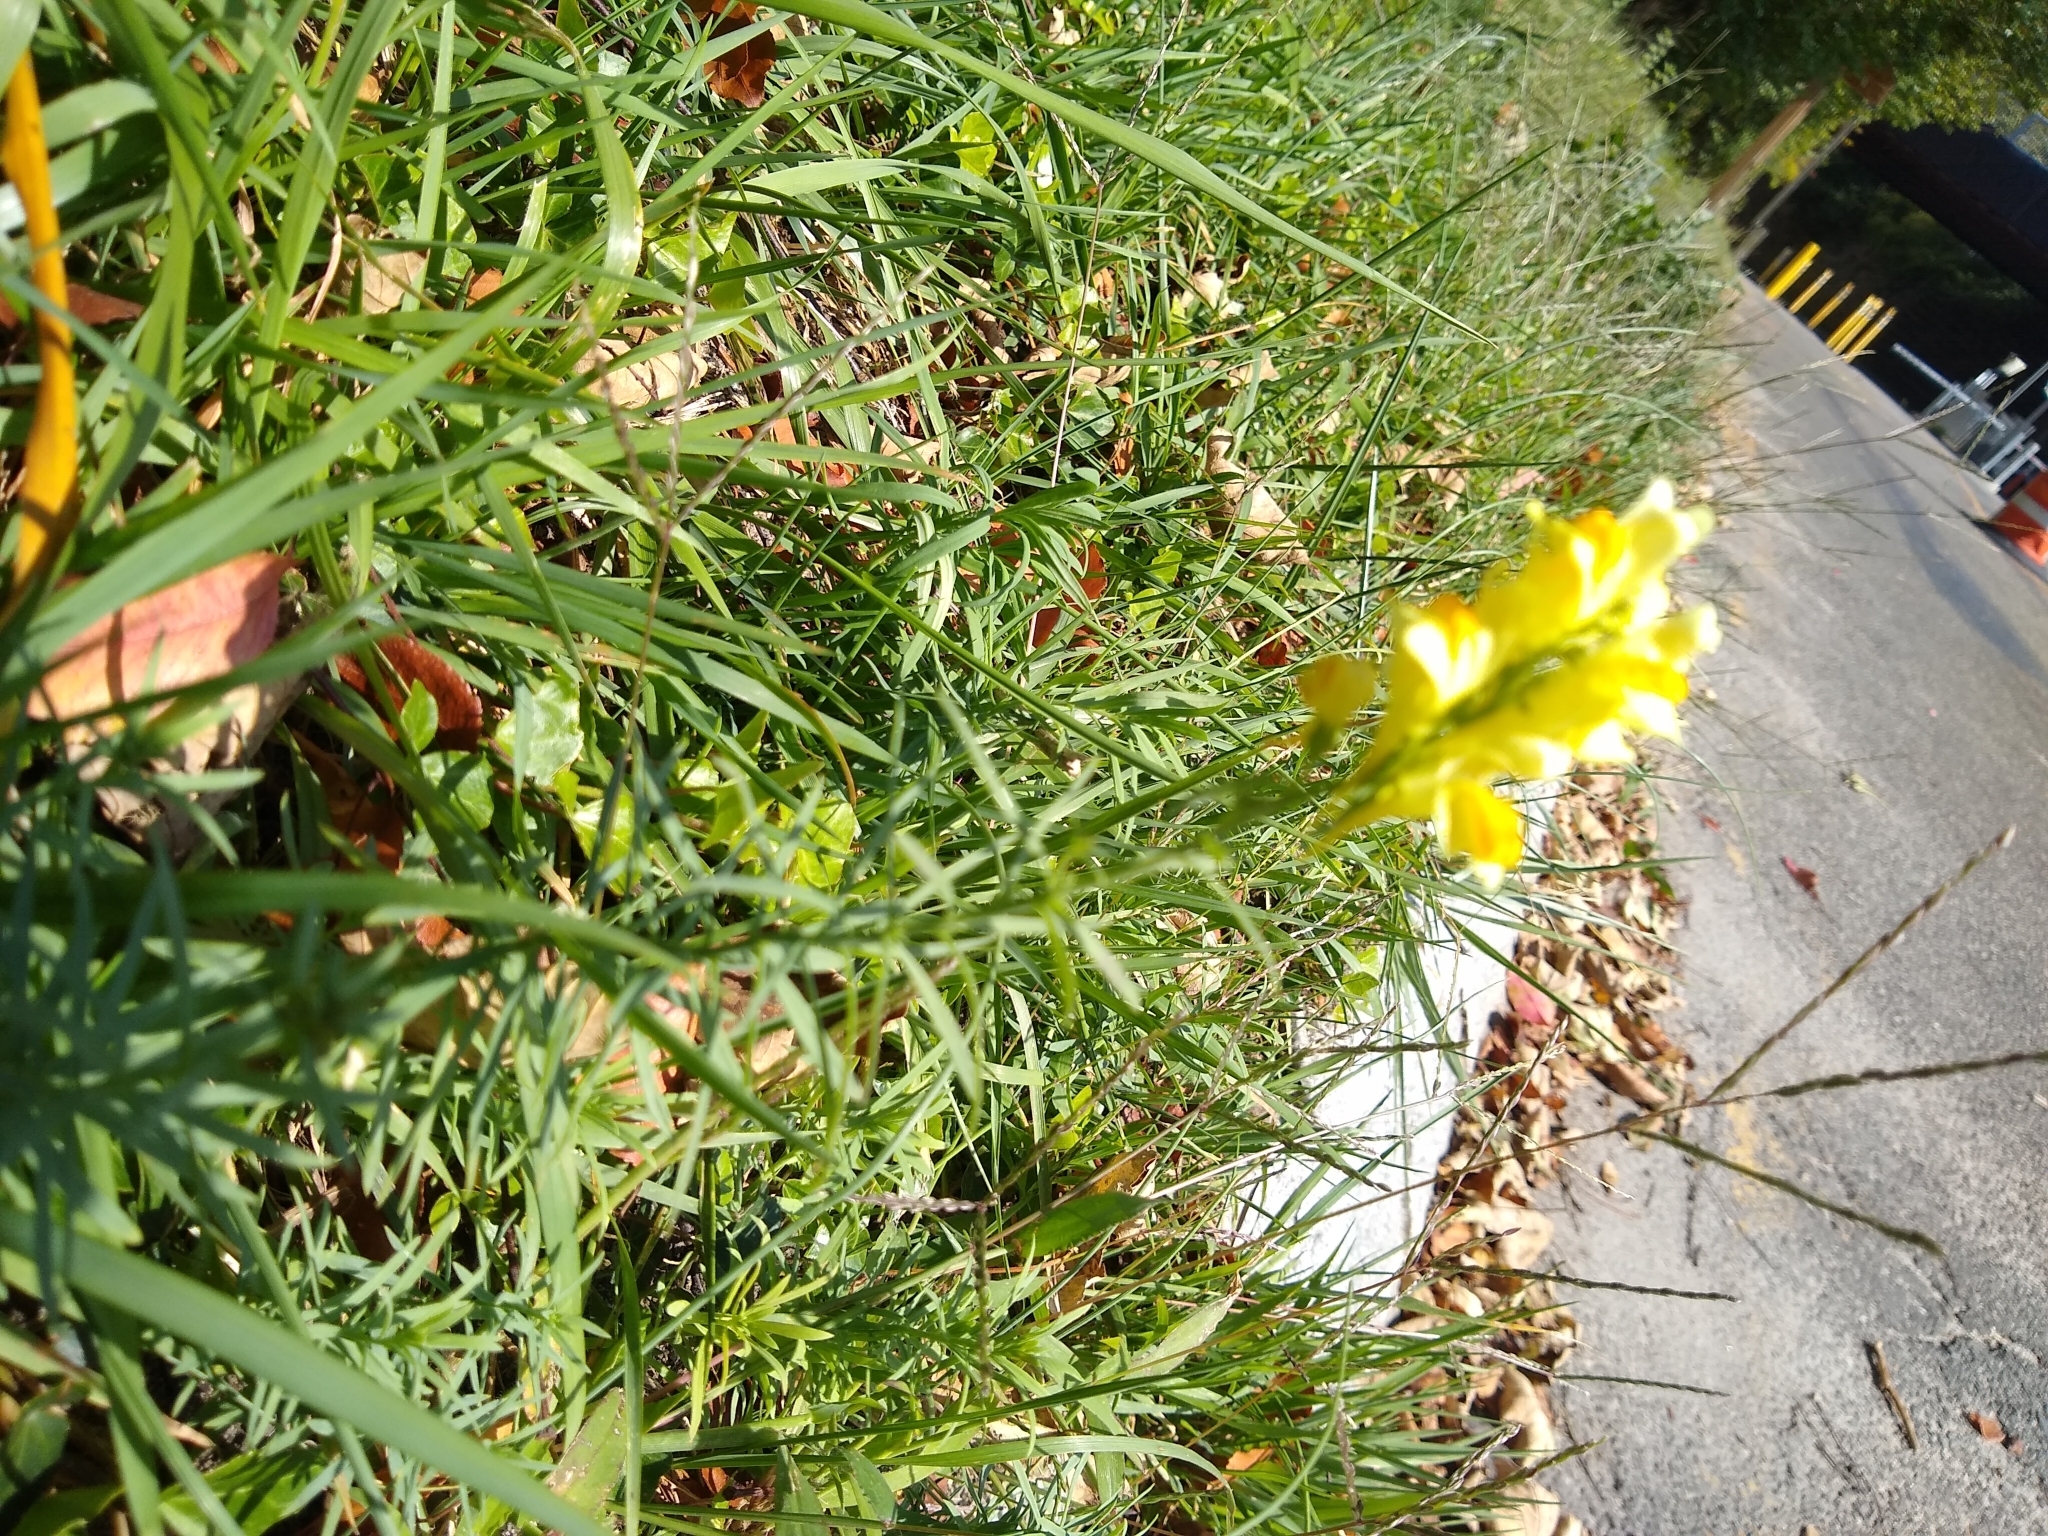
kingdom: Plantae
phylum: Tracheophyta
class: Magnoliopsida
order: Lamiales
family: Plantaginaceae
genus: Linaria
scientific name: Linaria vulgaris
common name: Butter and eggs
